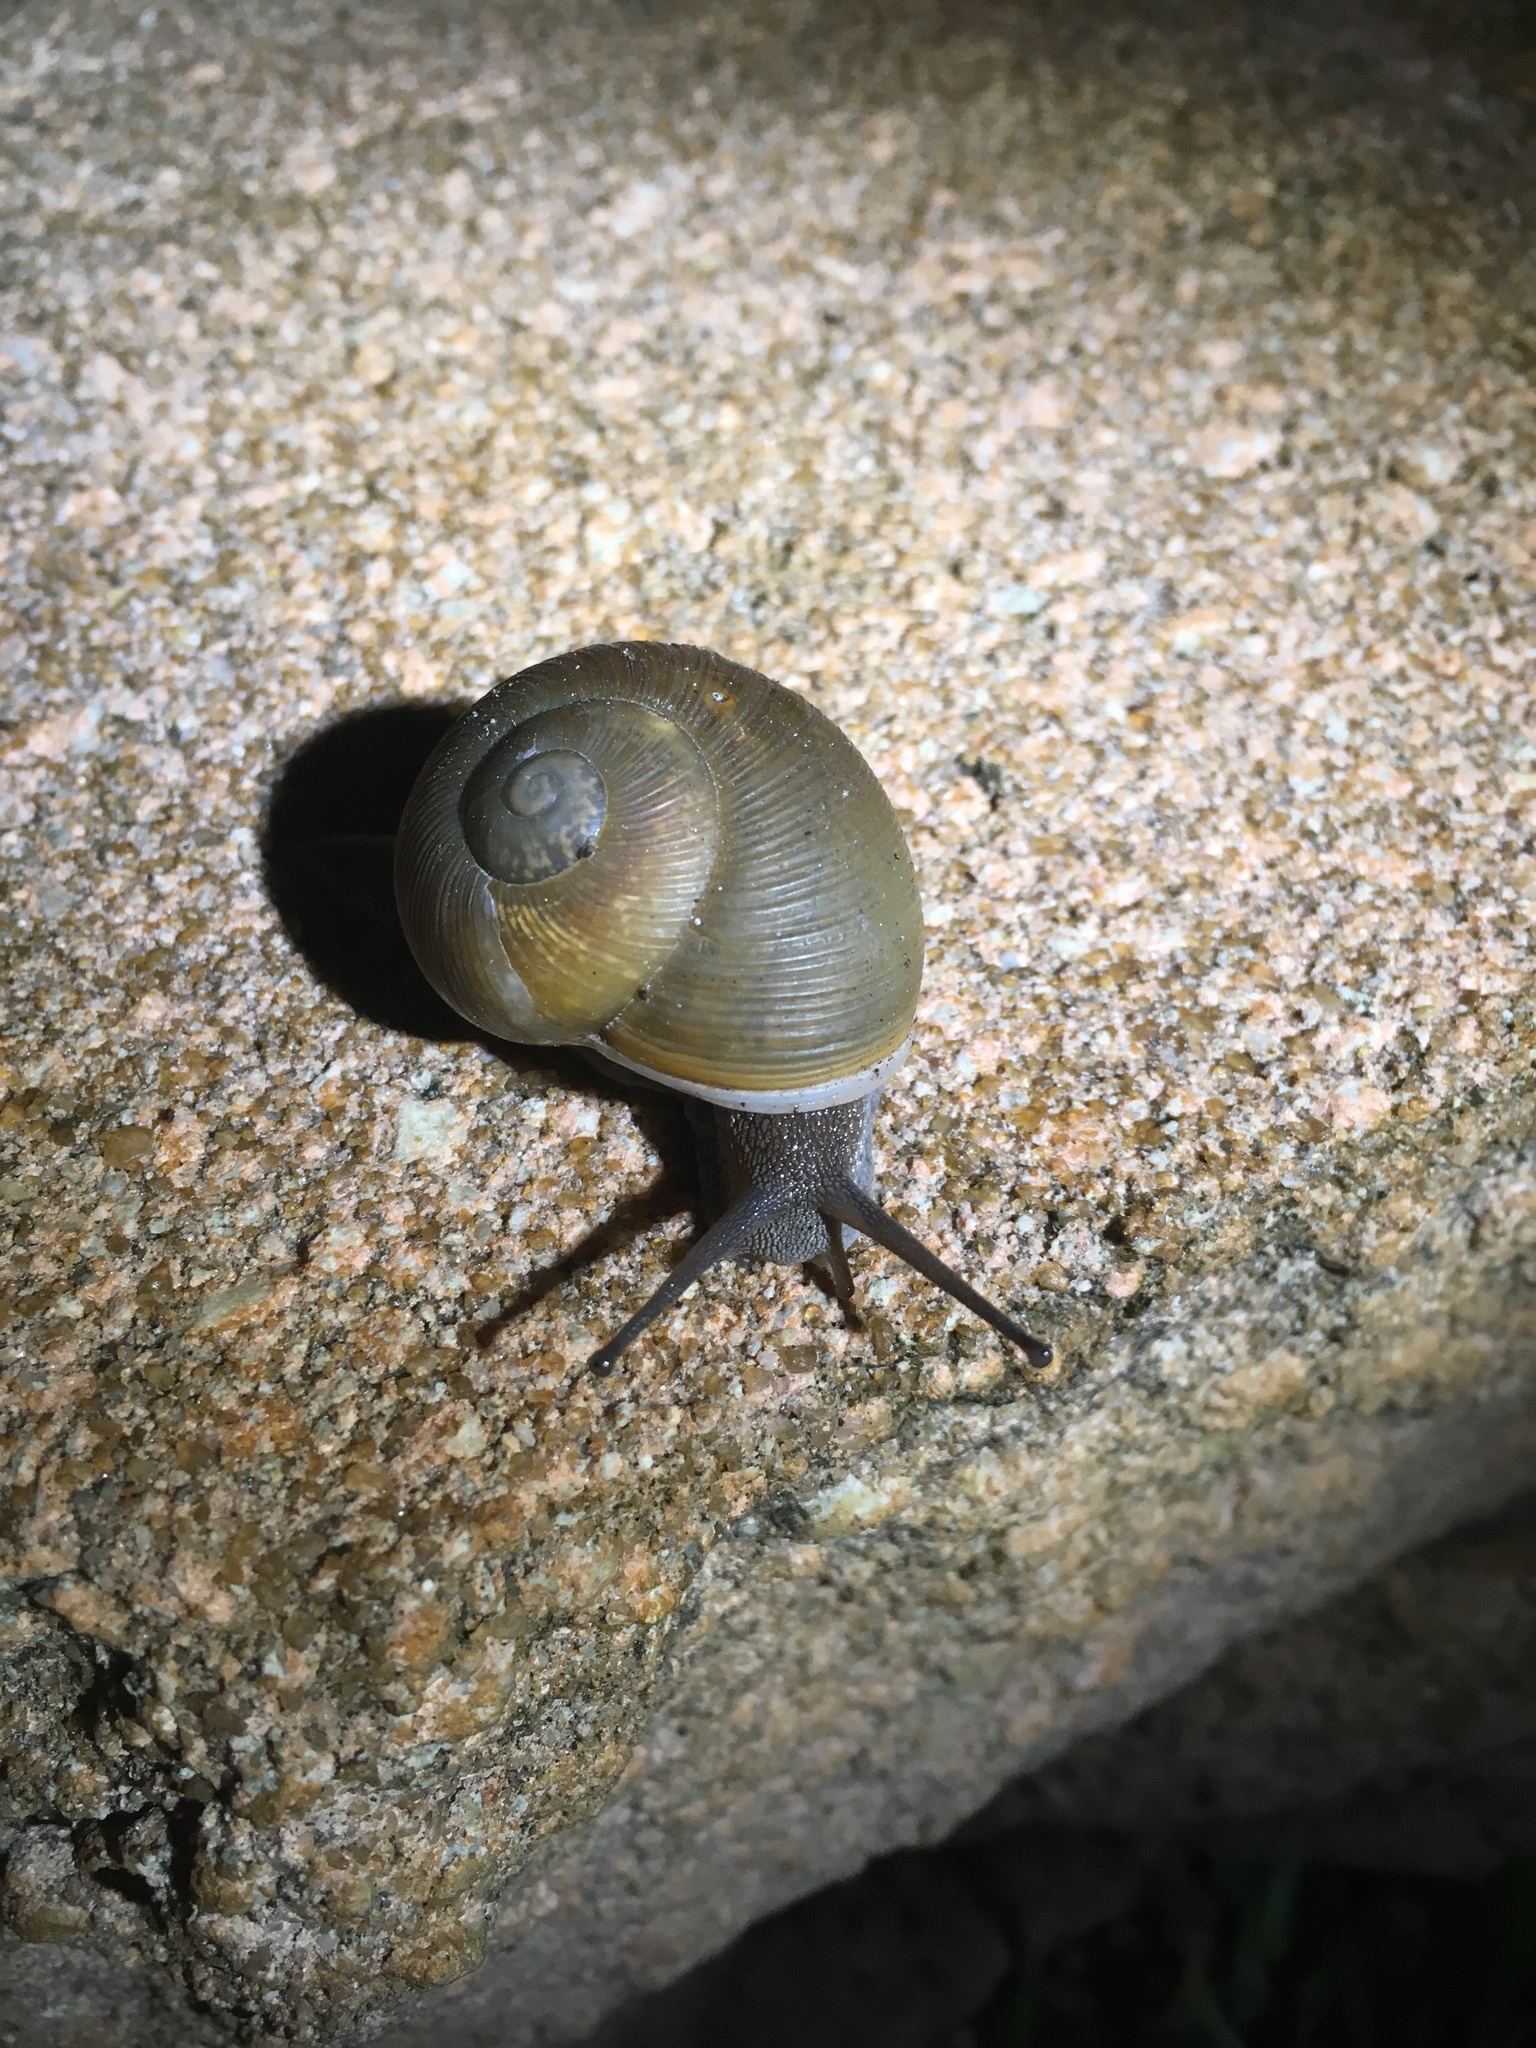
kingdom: Animalia
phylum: Mollusca
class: Gastropoda
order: Stylommatophora
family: Zachrysiidae
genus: Zachrysia
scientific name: Zachrysia provisoria
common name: Garden zachrysia
